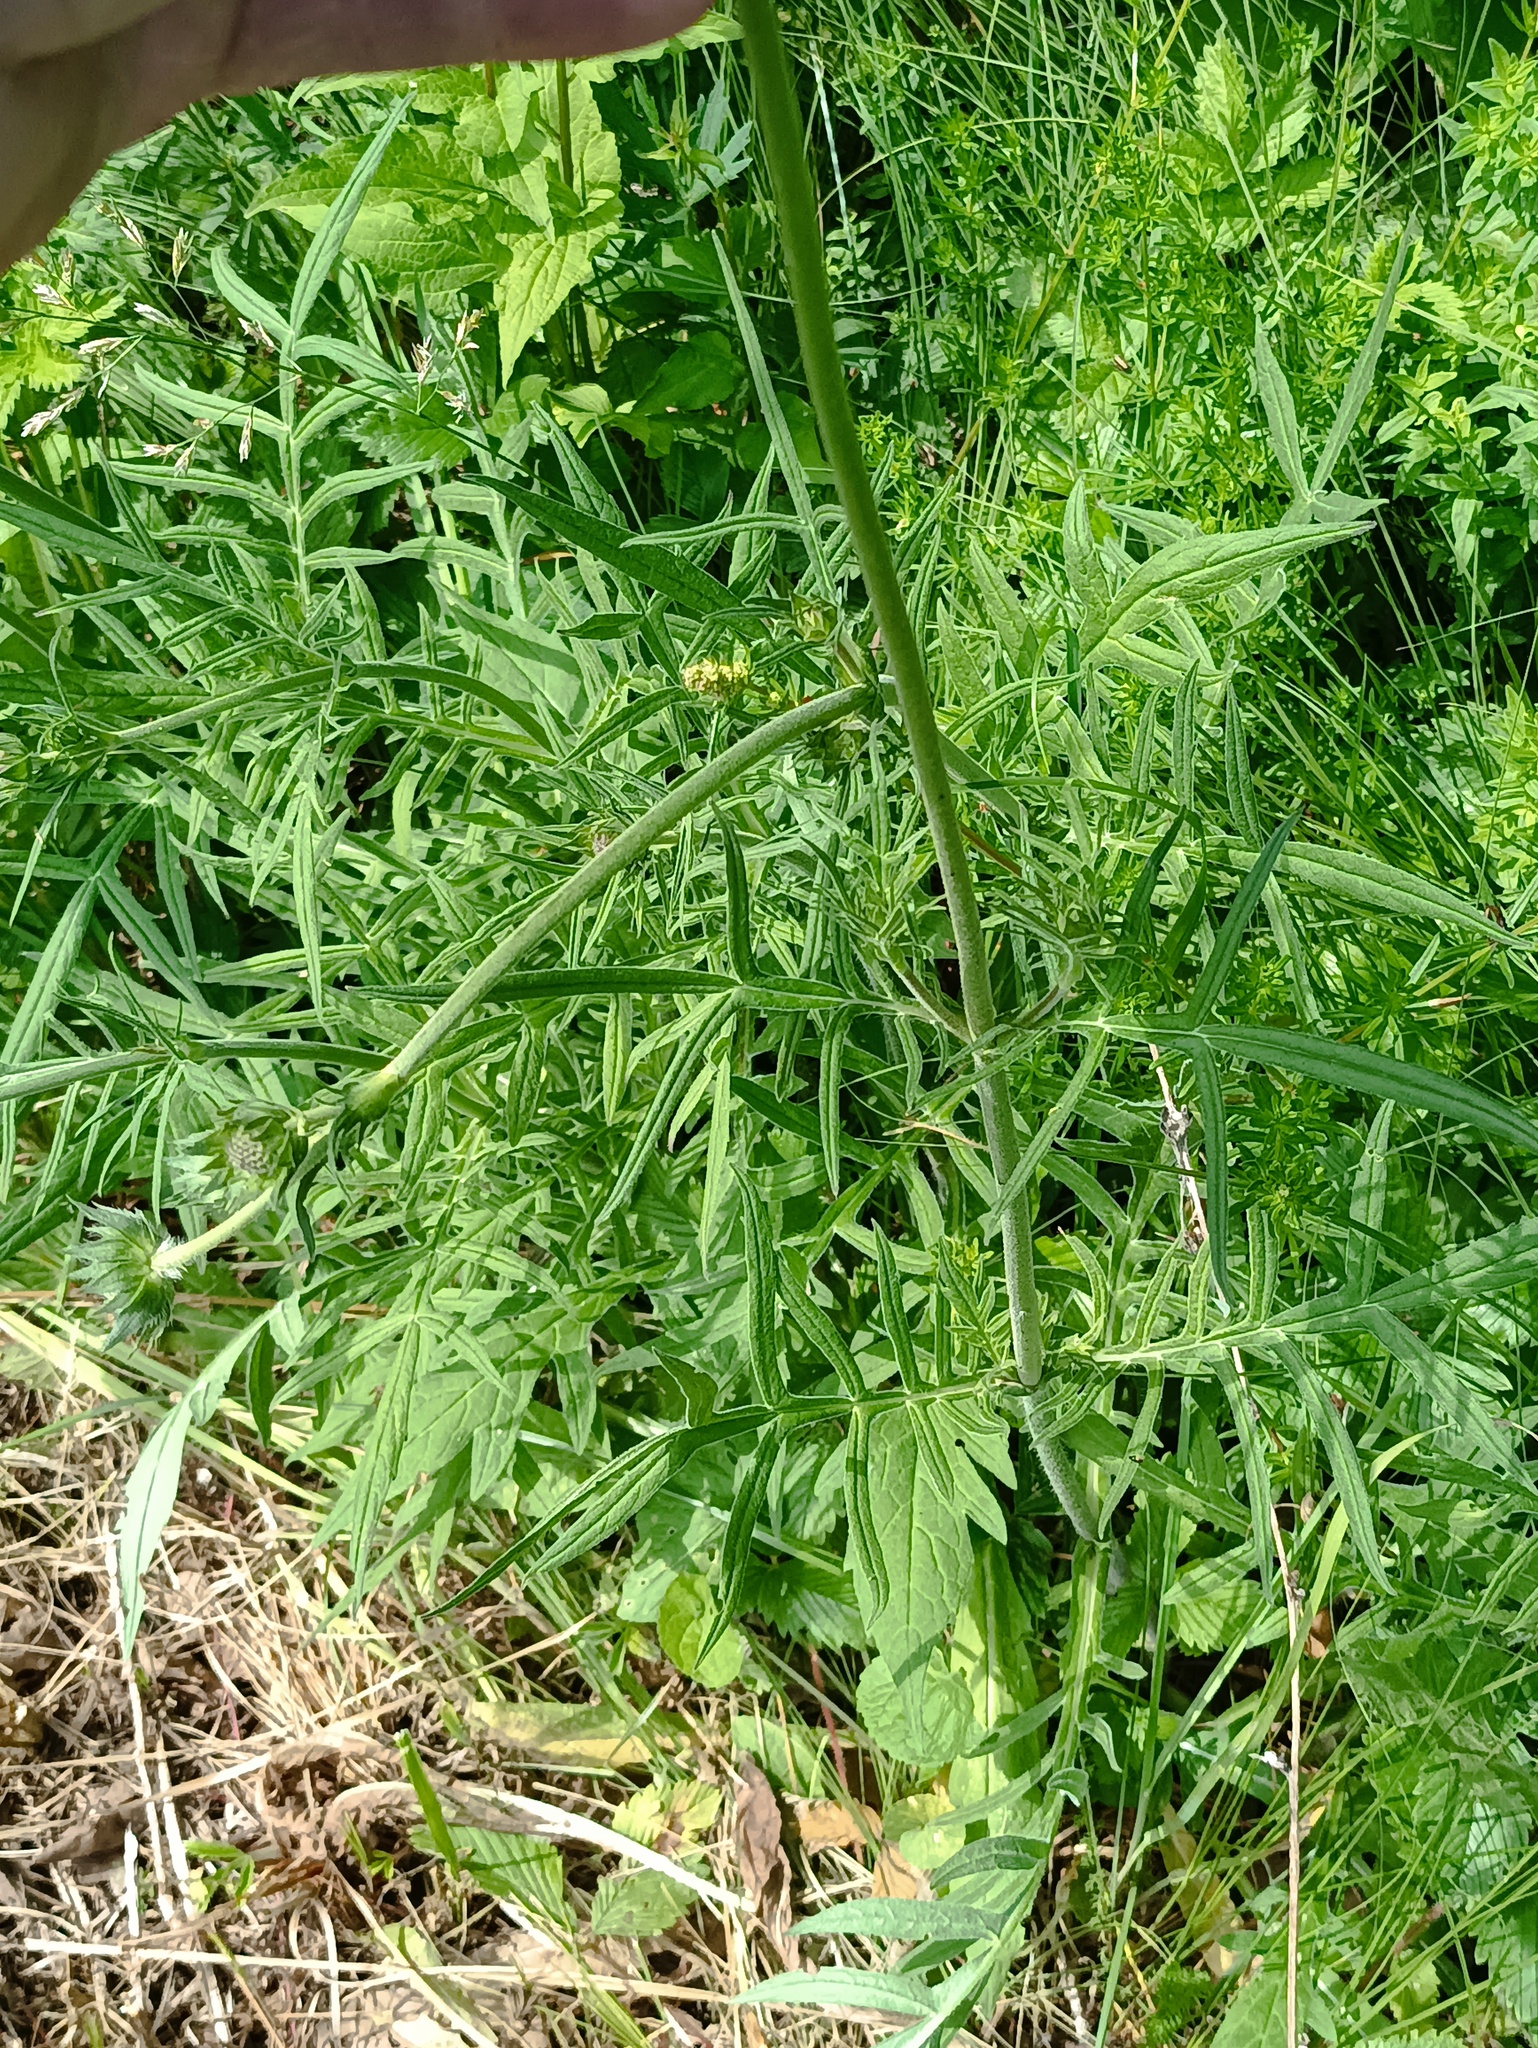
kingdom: Plantae
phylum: Tracheophyta
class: Magnoliopsida
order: Dipsacales
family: Caprifoliaceae
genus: Knautia
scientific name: Knautia arvensis
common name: Field scabiosa
